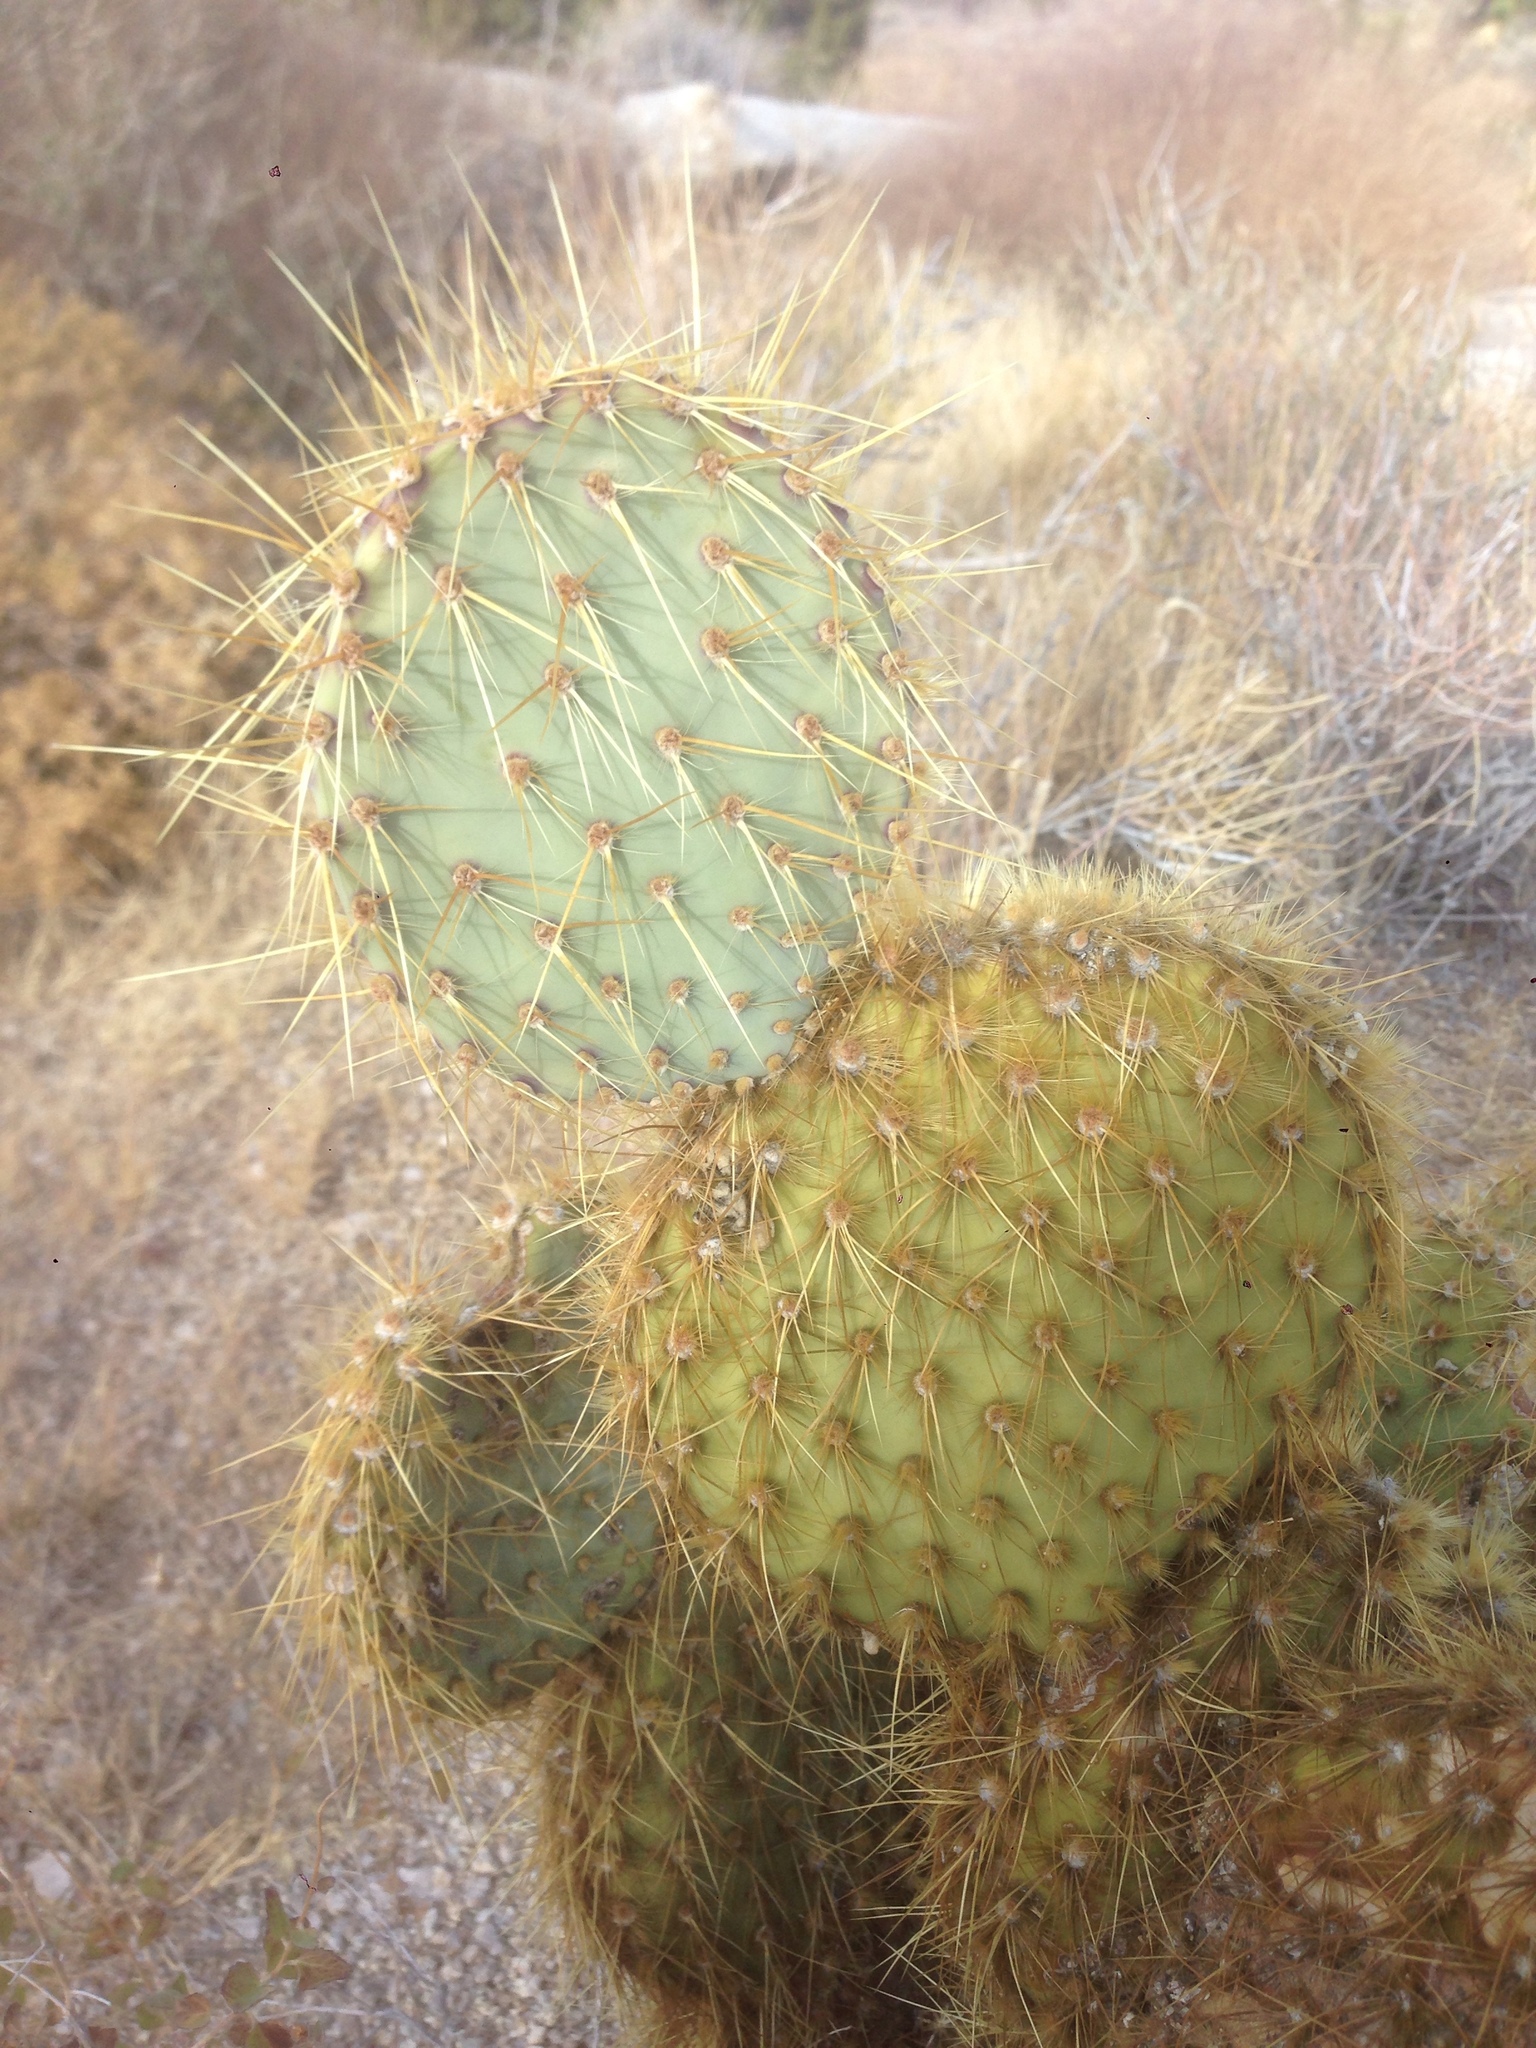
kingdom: Plantae
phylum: Tracheophyta
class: Magnoliopsida
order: Caryophyllales
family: Cactaceae
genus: Opuntia
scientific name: Opuntia chlorotica
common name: Dollar-joint prickly-pear
